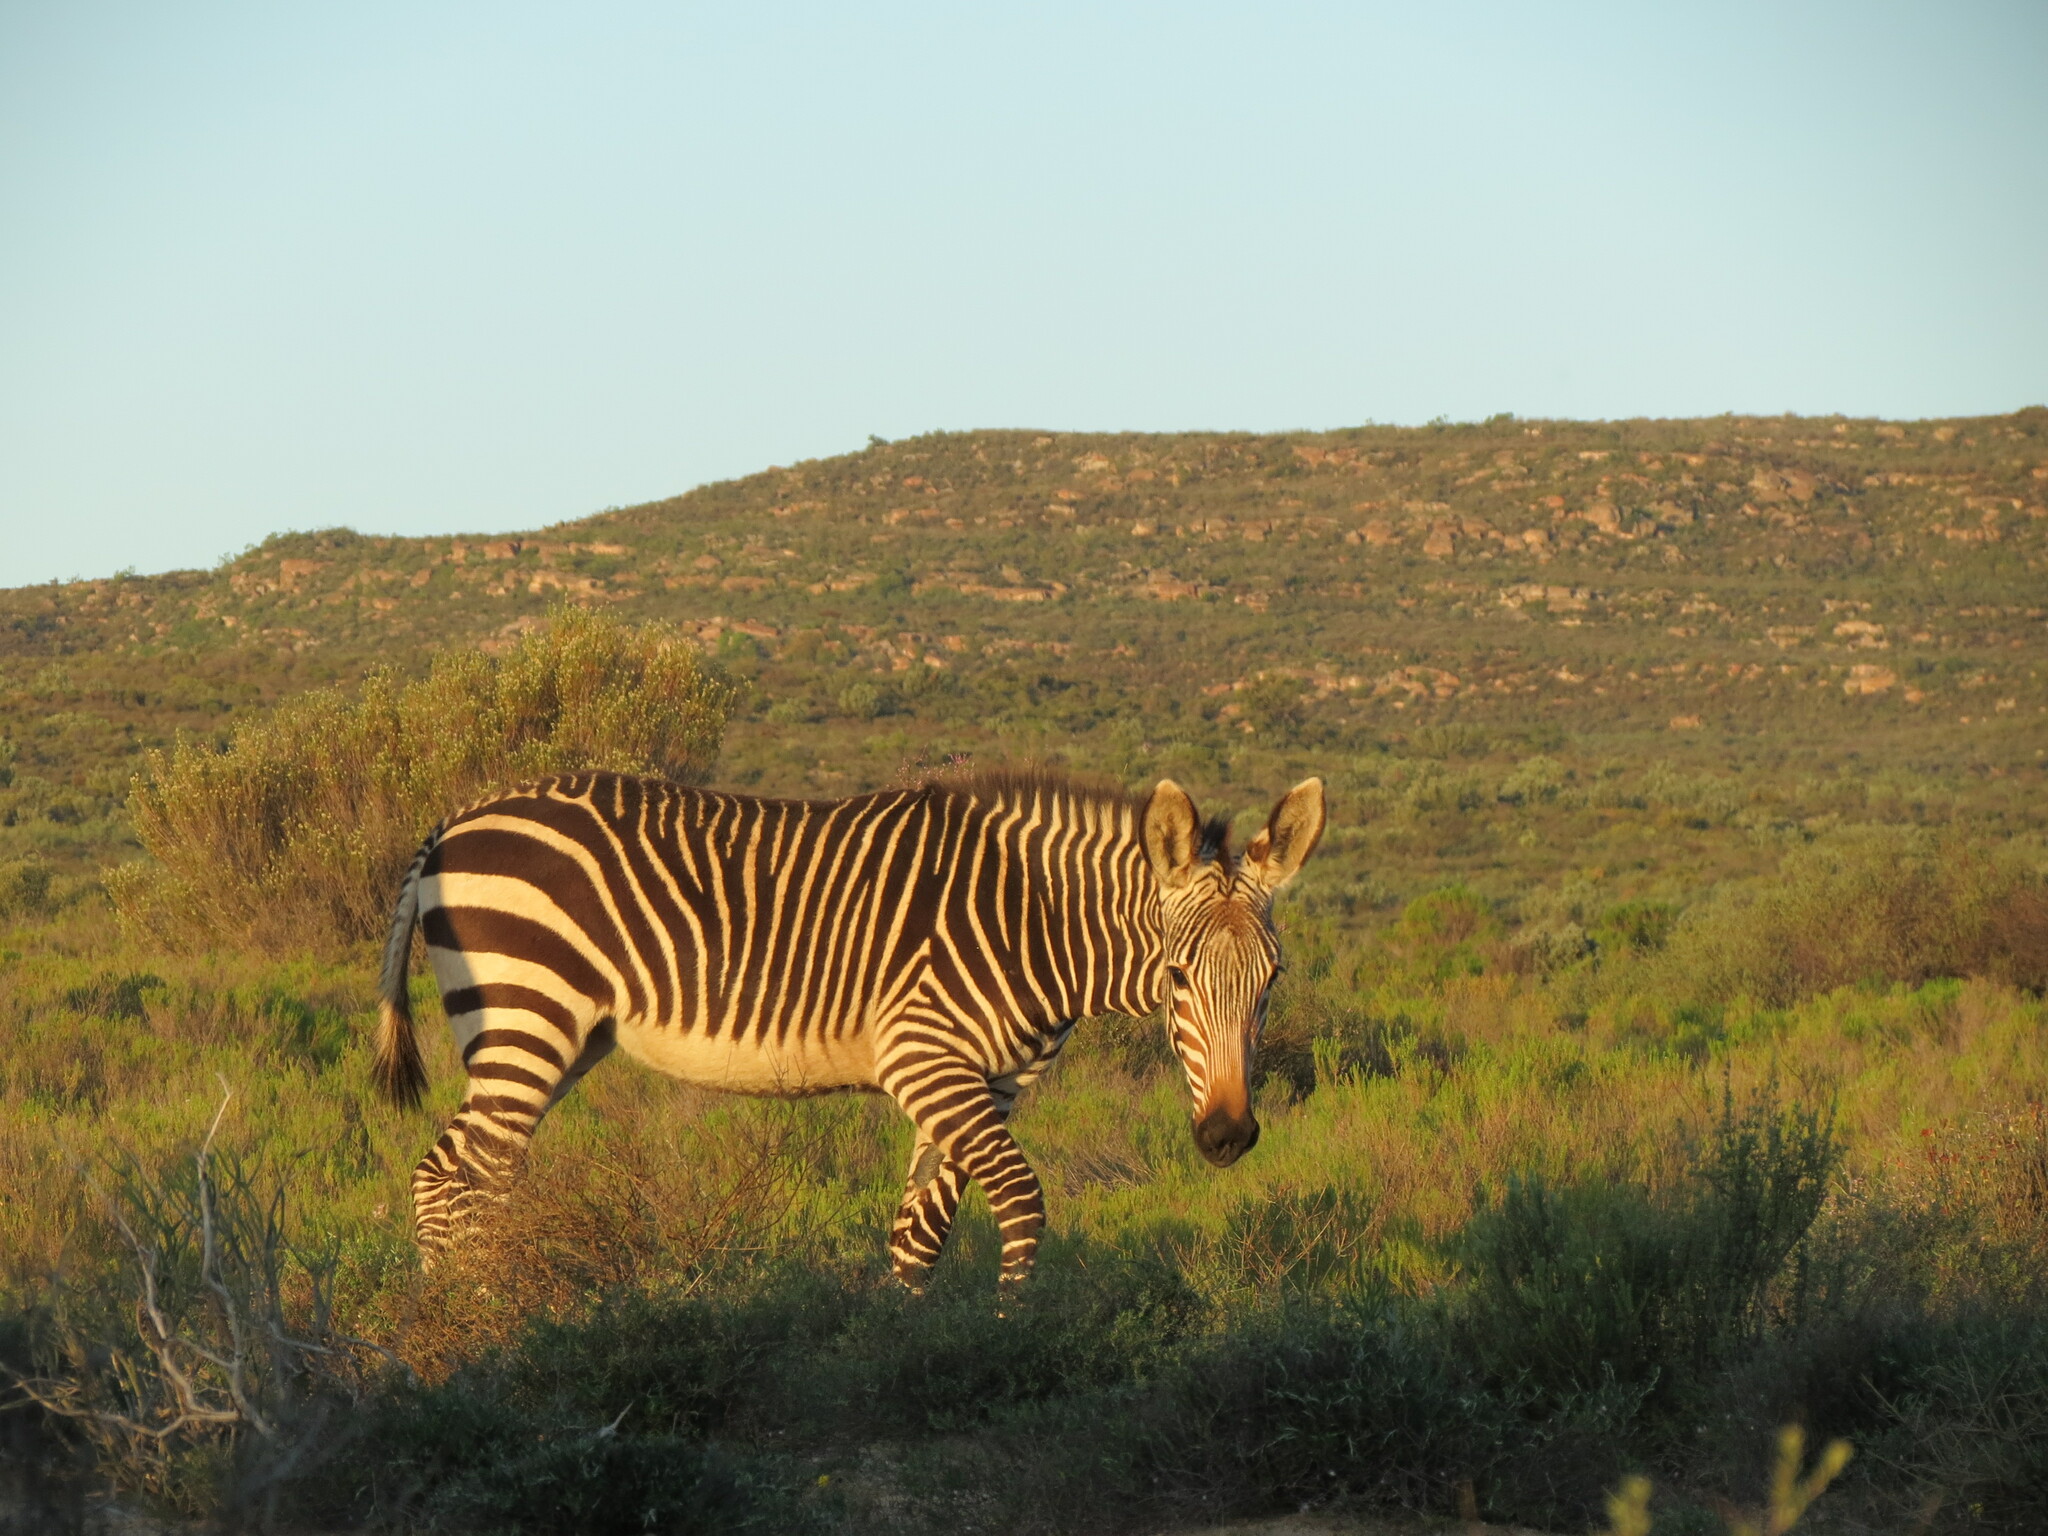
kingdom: Animalia
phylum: Chordata
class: Mammalia
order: Perissodactyla
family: Equidae
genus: Equus
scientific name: Equus zebra
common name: Mountain zebra
